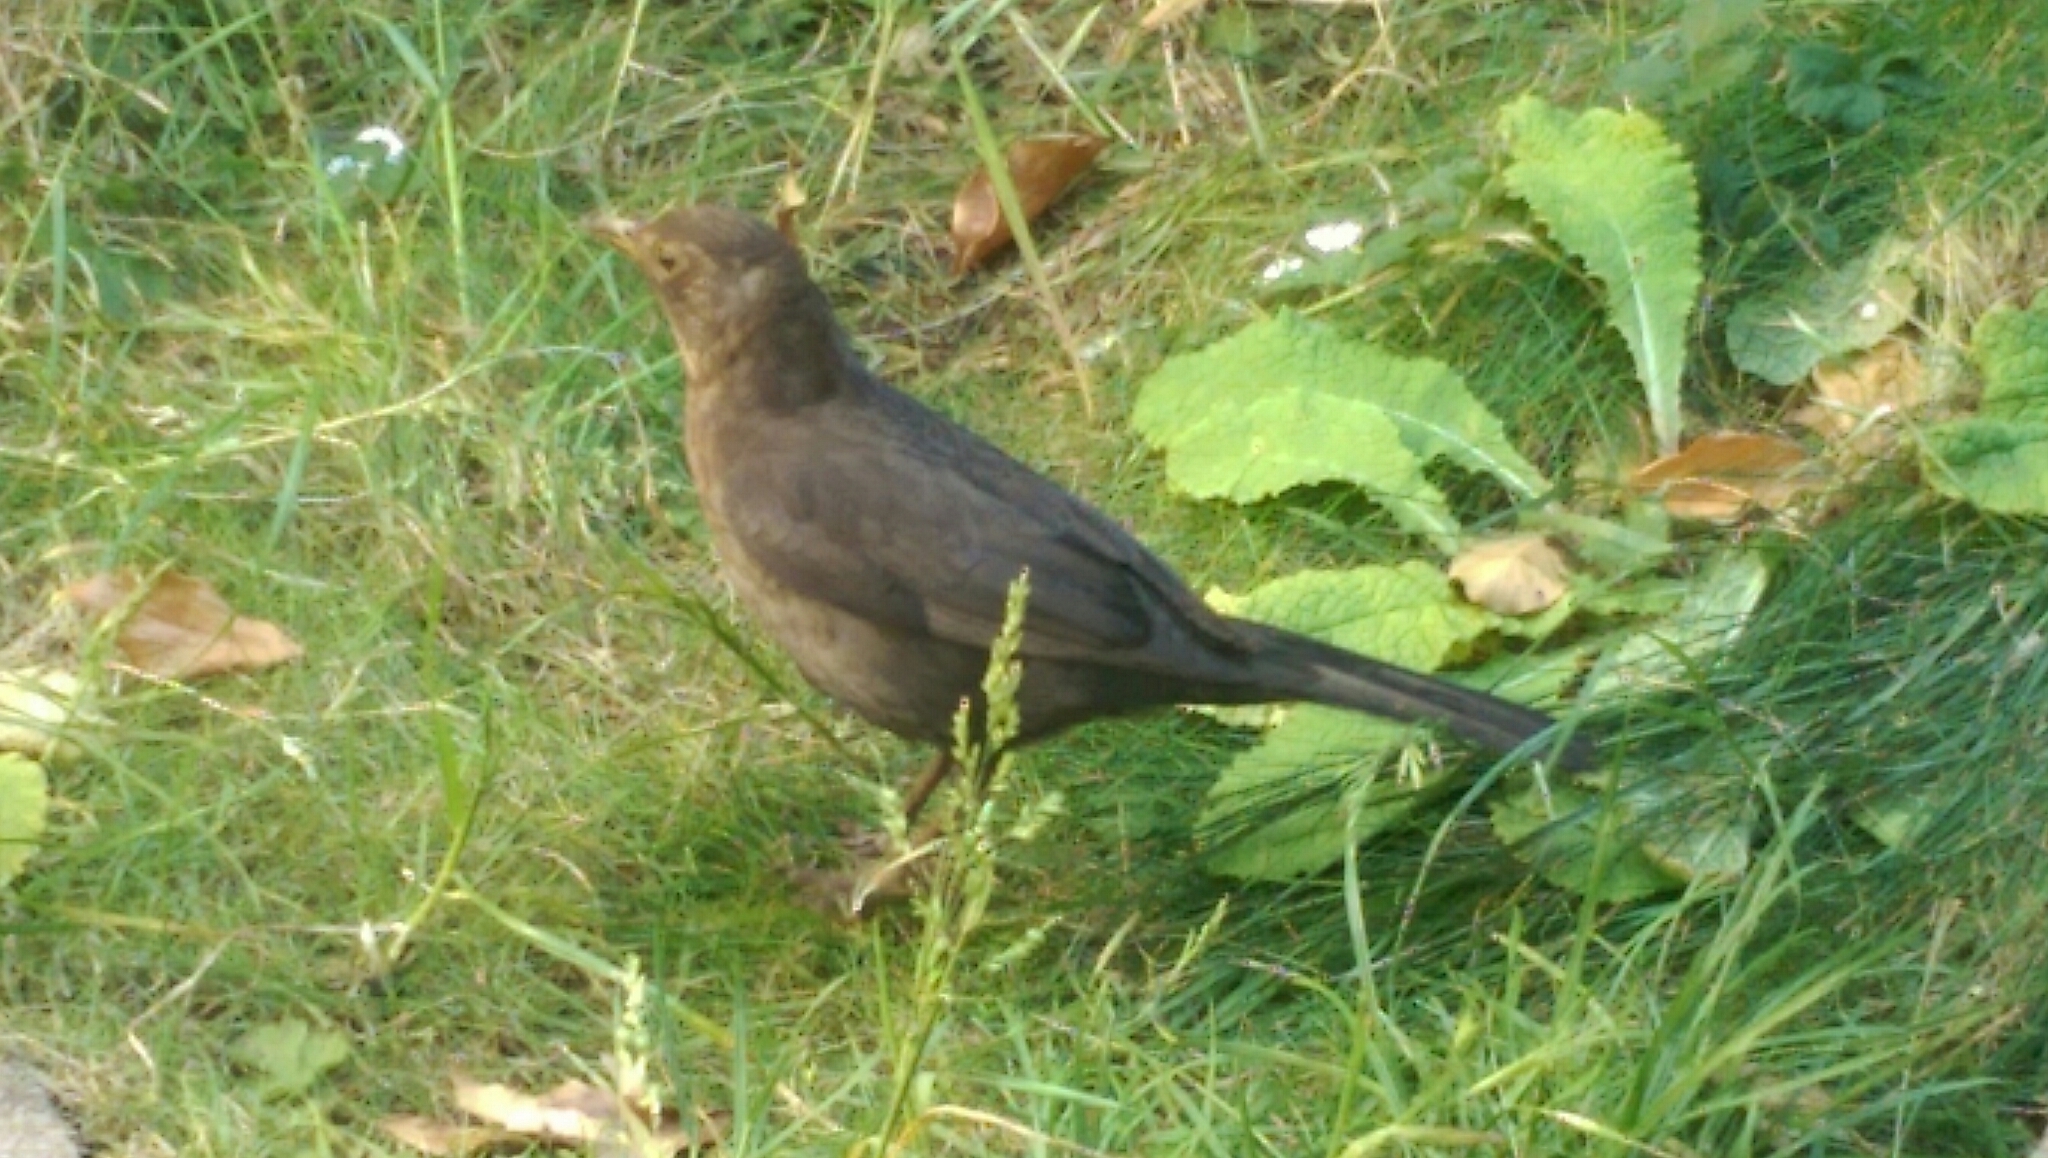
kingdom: Animalia
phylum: Chordata
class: Aves
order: Passeriformes
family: Turdidae
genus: Turdus
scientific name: Turdus merula
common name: Common blackbird
